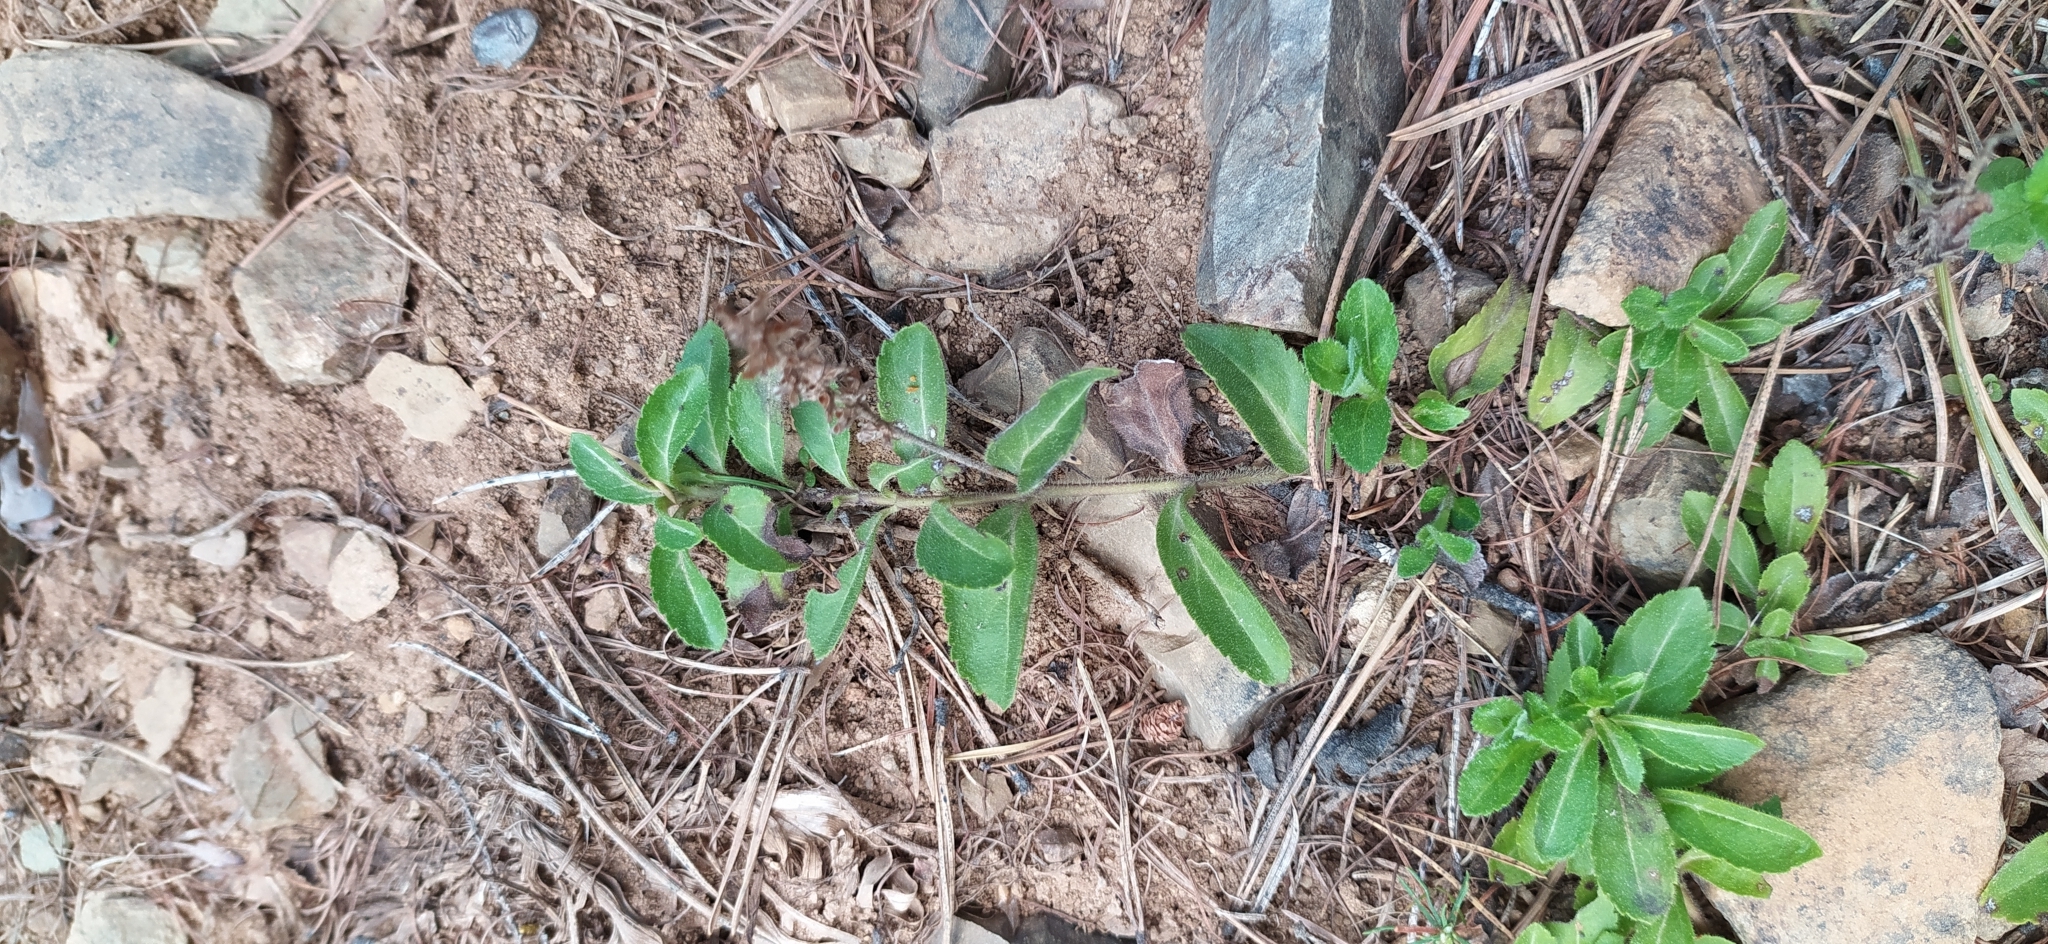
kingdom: Plantae
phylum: Tracheophyta
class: Magnoliopsida
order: Lamiales
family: Plantaginaceae
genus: Veronica
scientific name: Veronica officinalis
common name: Common speedwell
